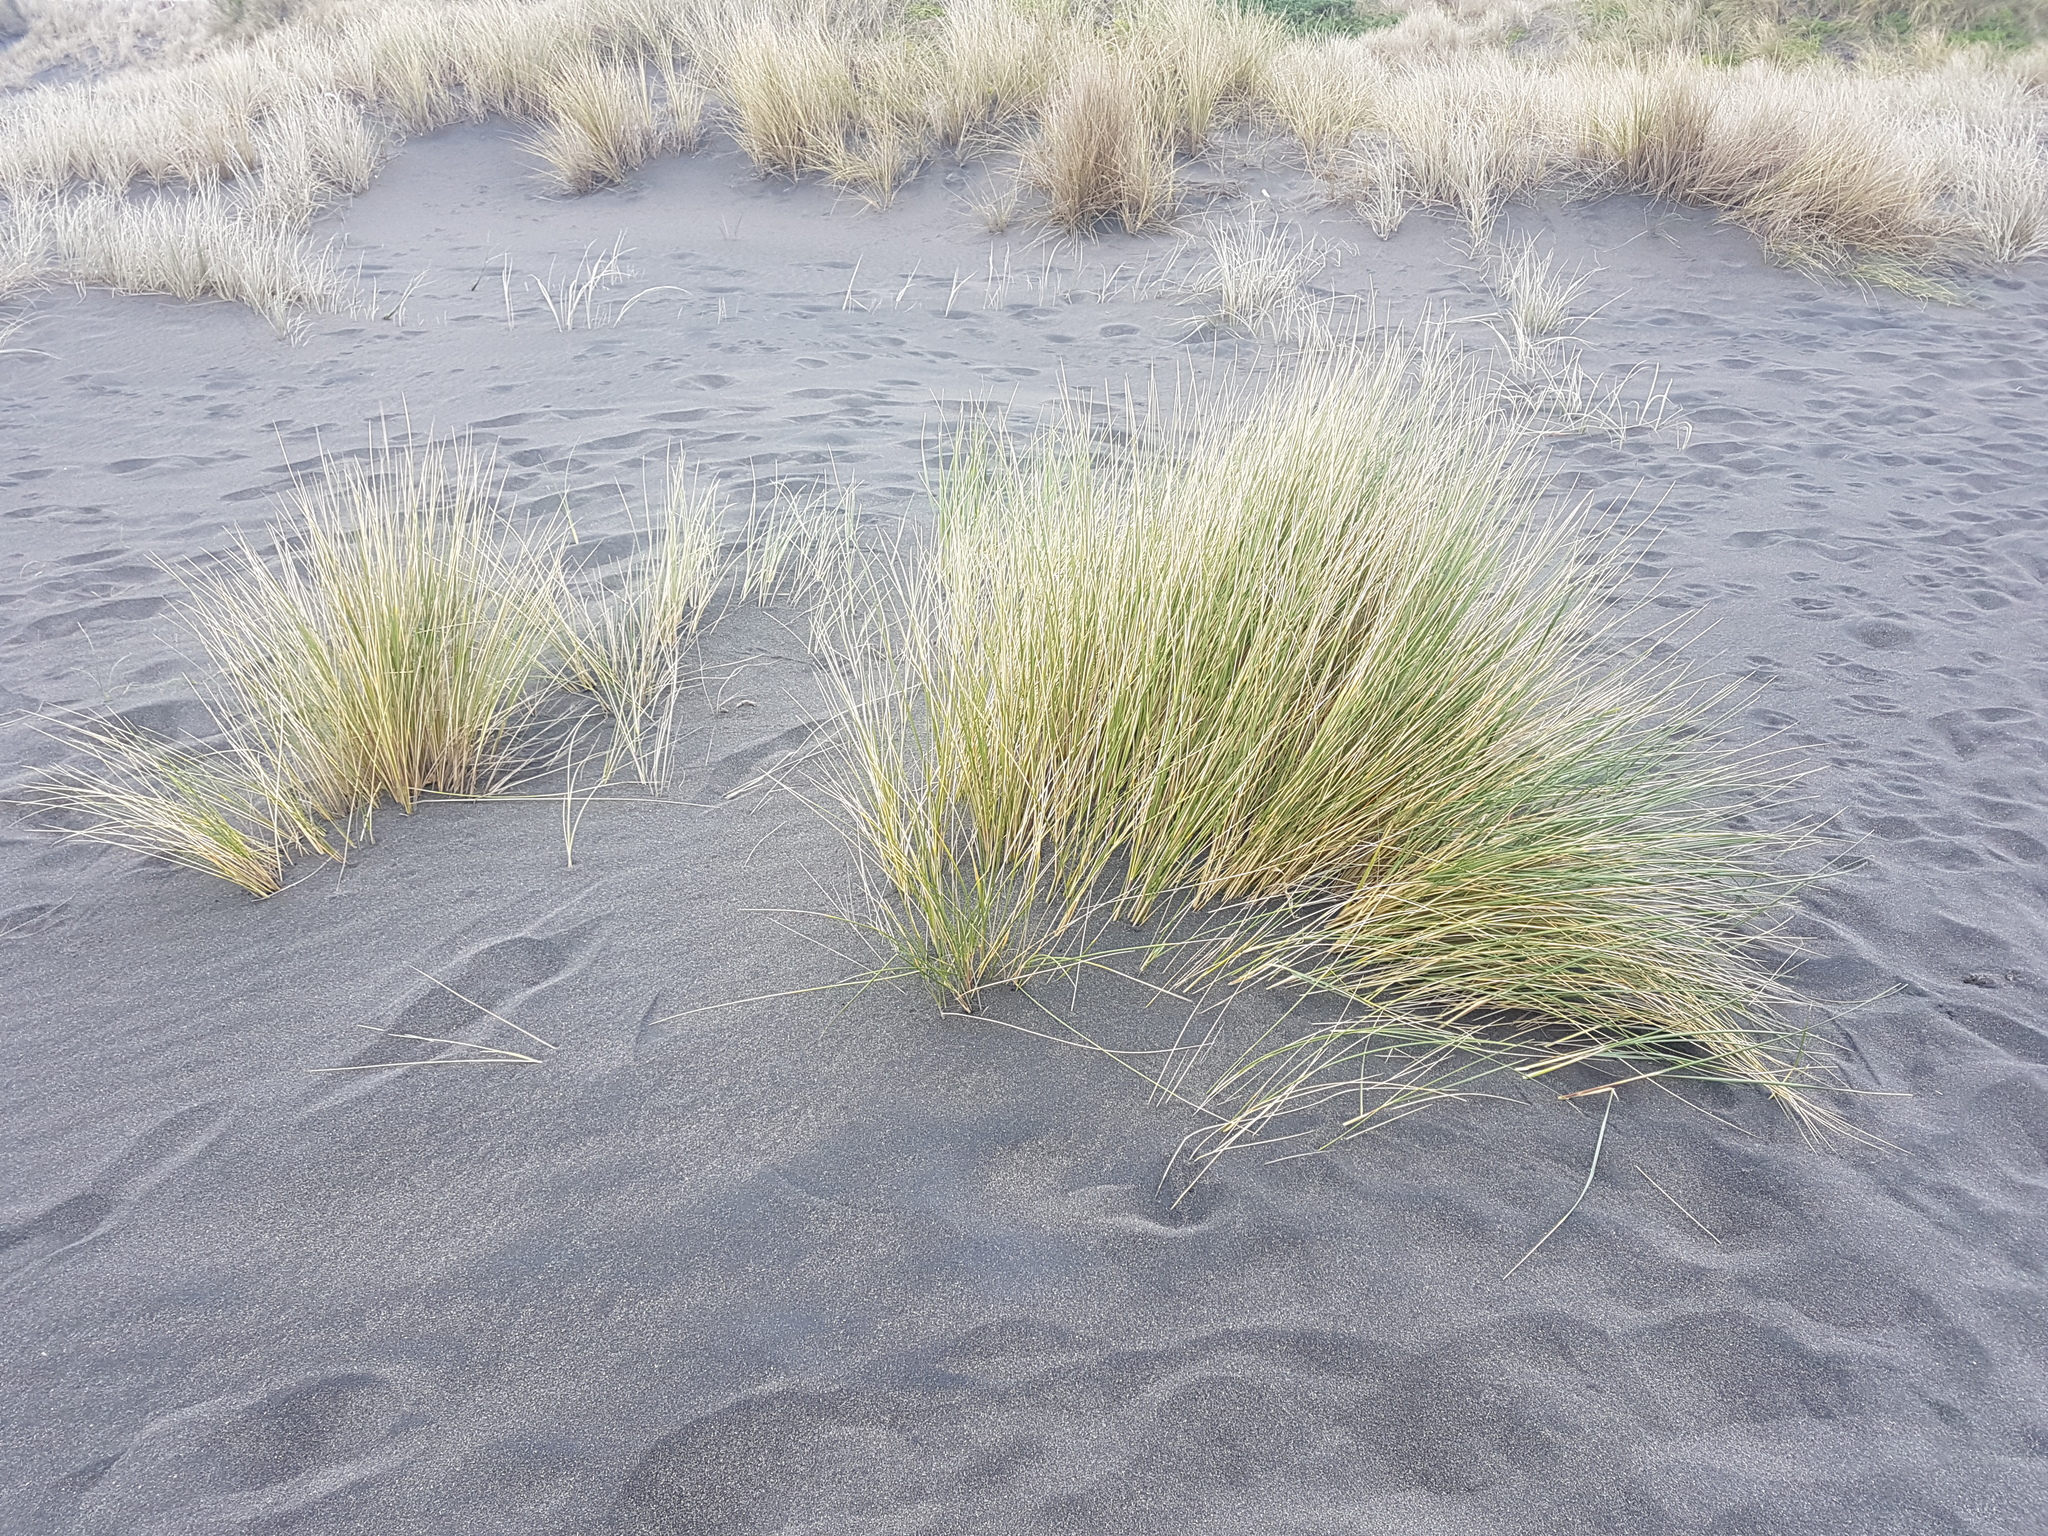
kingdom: Plantae
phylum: Tracheophyta
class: Liliopsida
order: Poales
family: Poaceae
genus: Calamagrostis
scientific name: Calamagrostis arenaria
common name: European beachgrass
